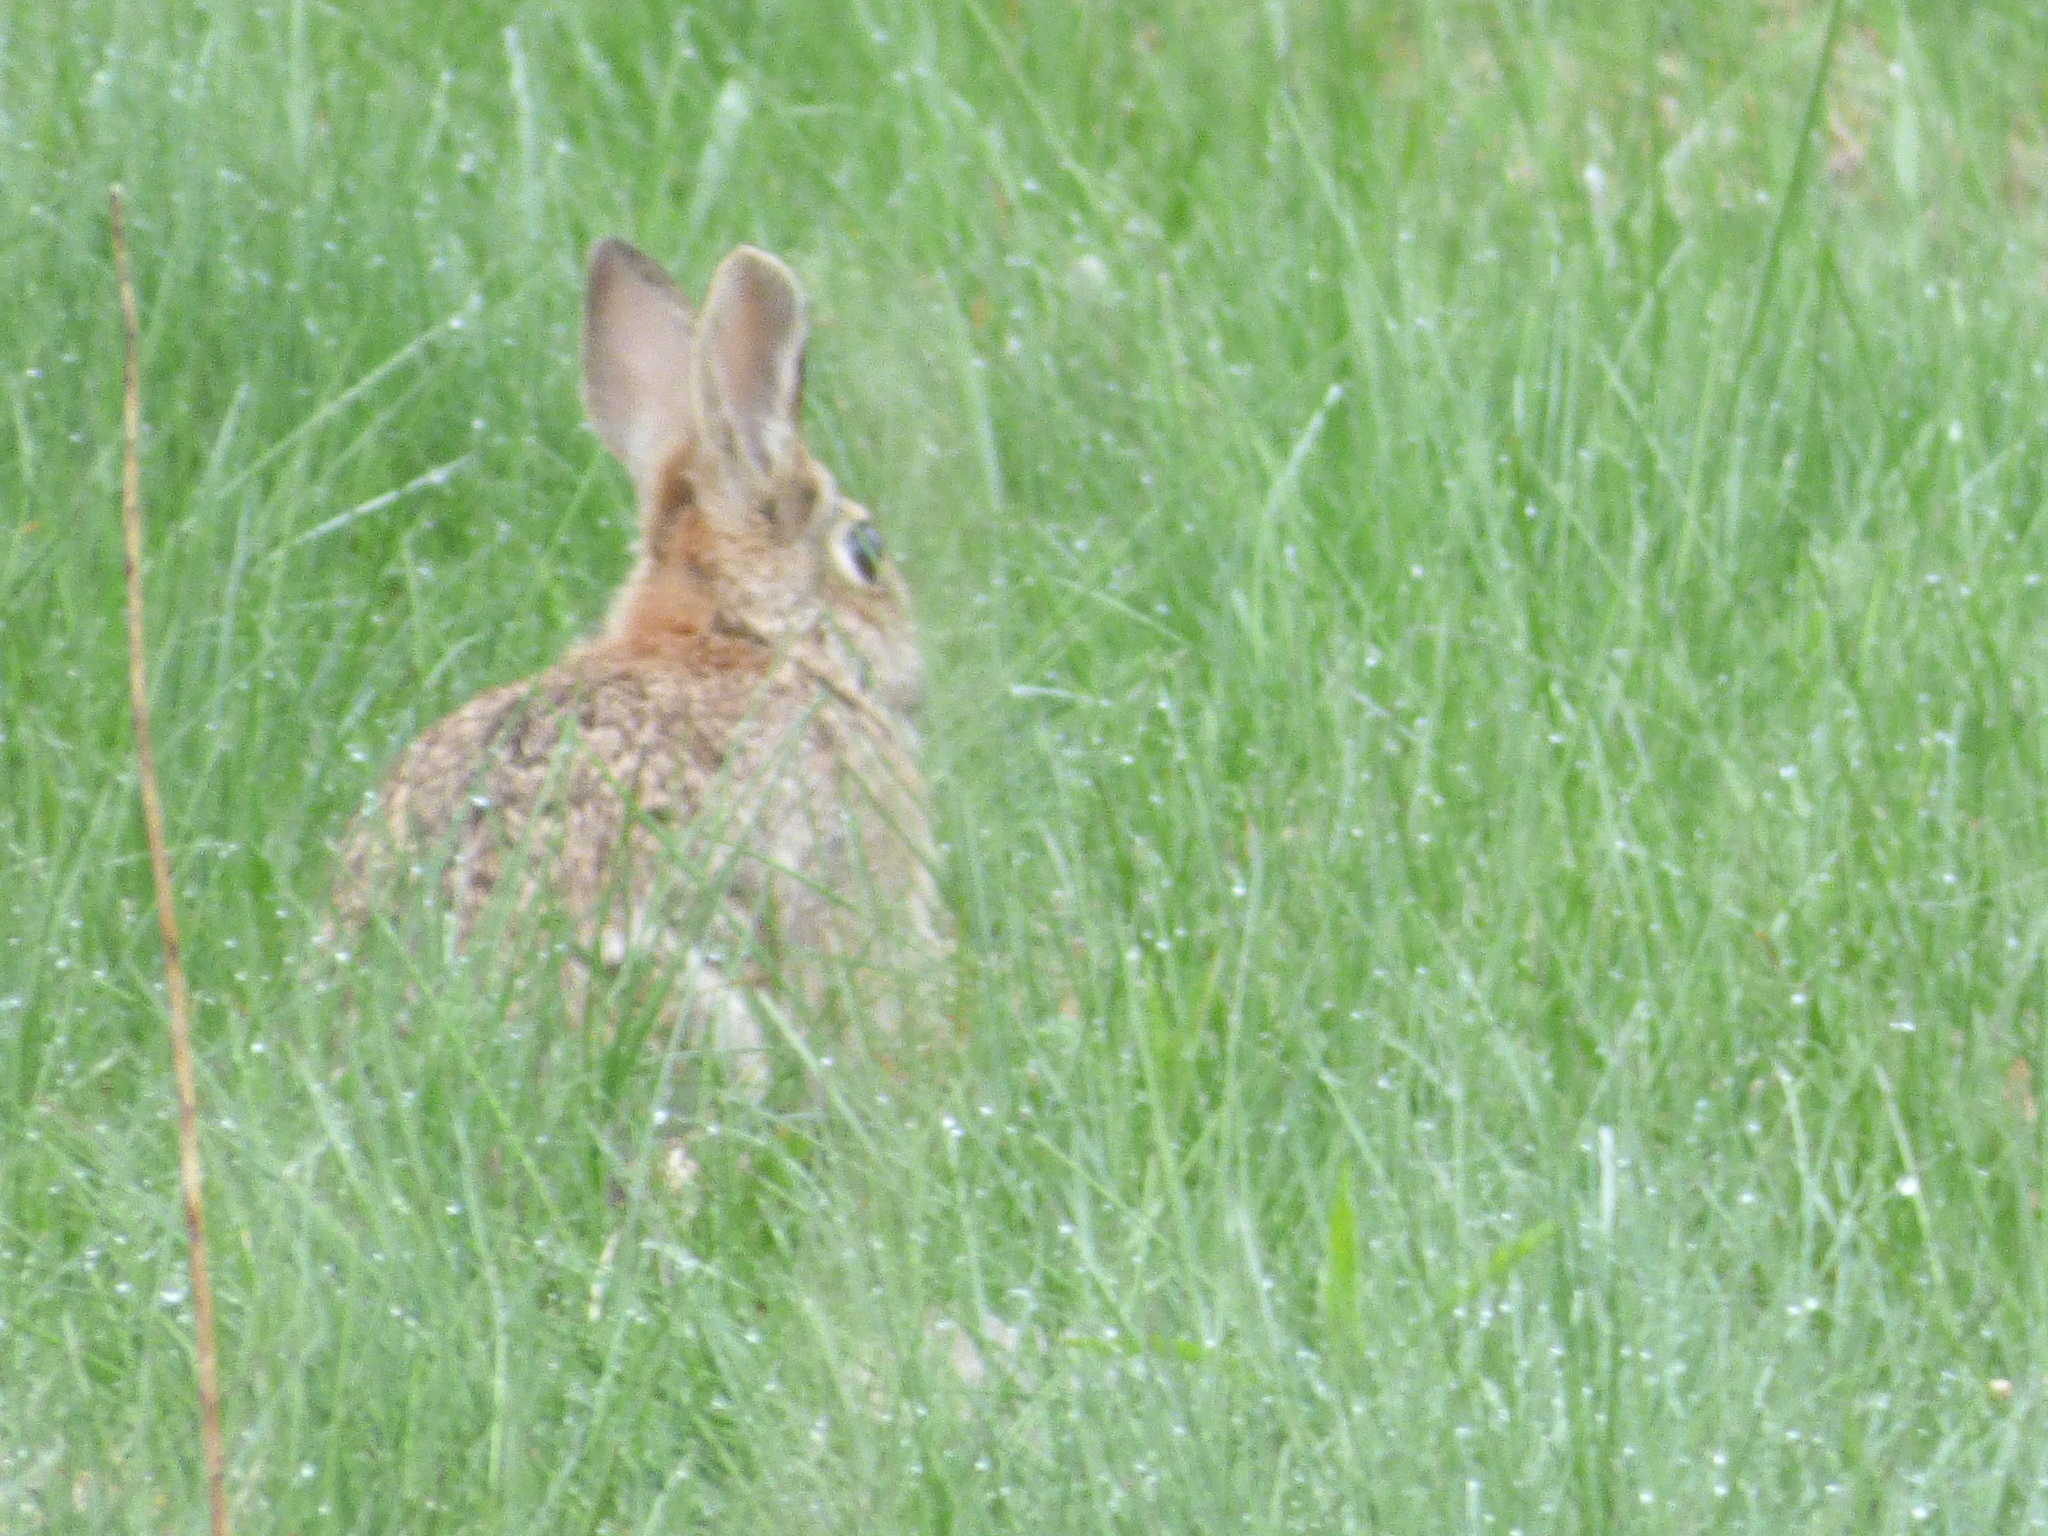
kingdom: Animalia
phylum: Chordata
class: Mammalia
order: Lagomorpha
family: Leporidae
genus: Sylvilagus
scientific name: Sylvilagus floridanus
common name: Eastern cottontail
